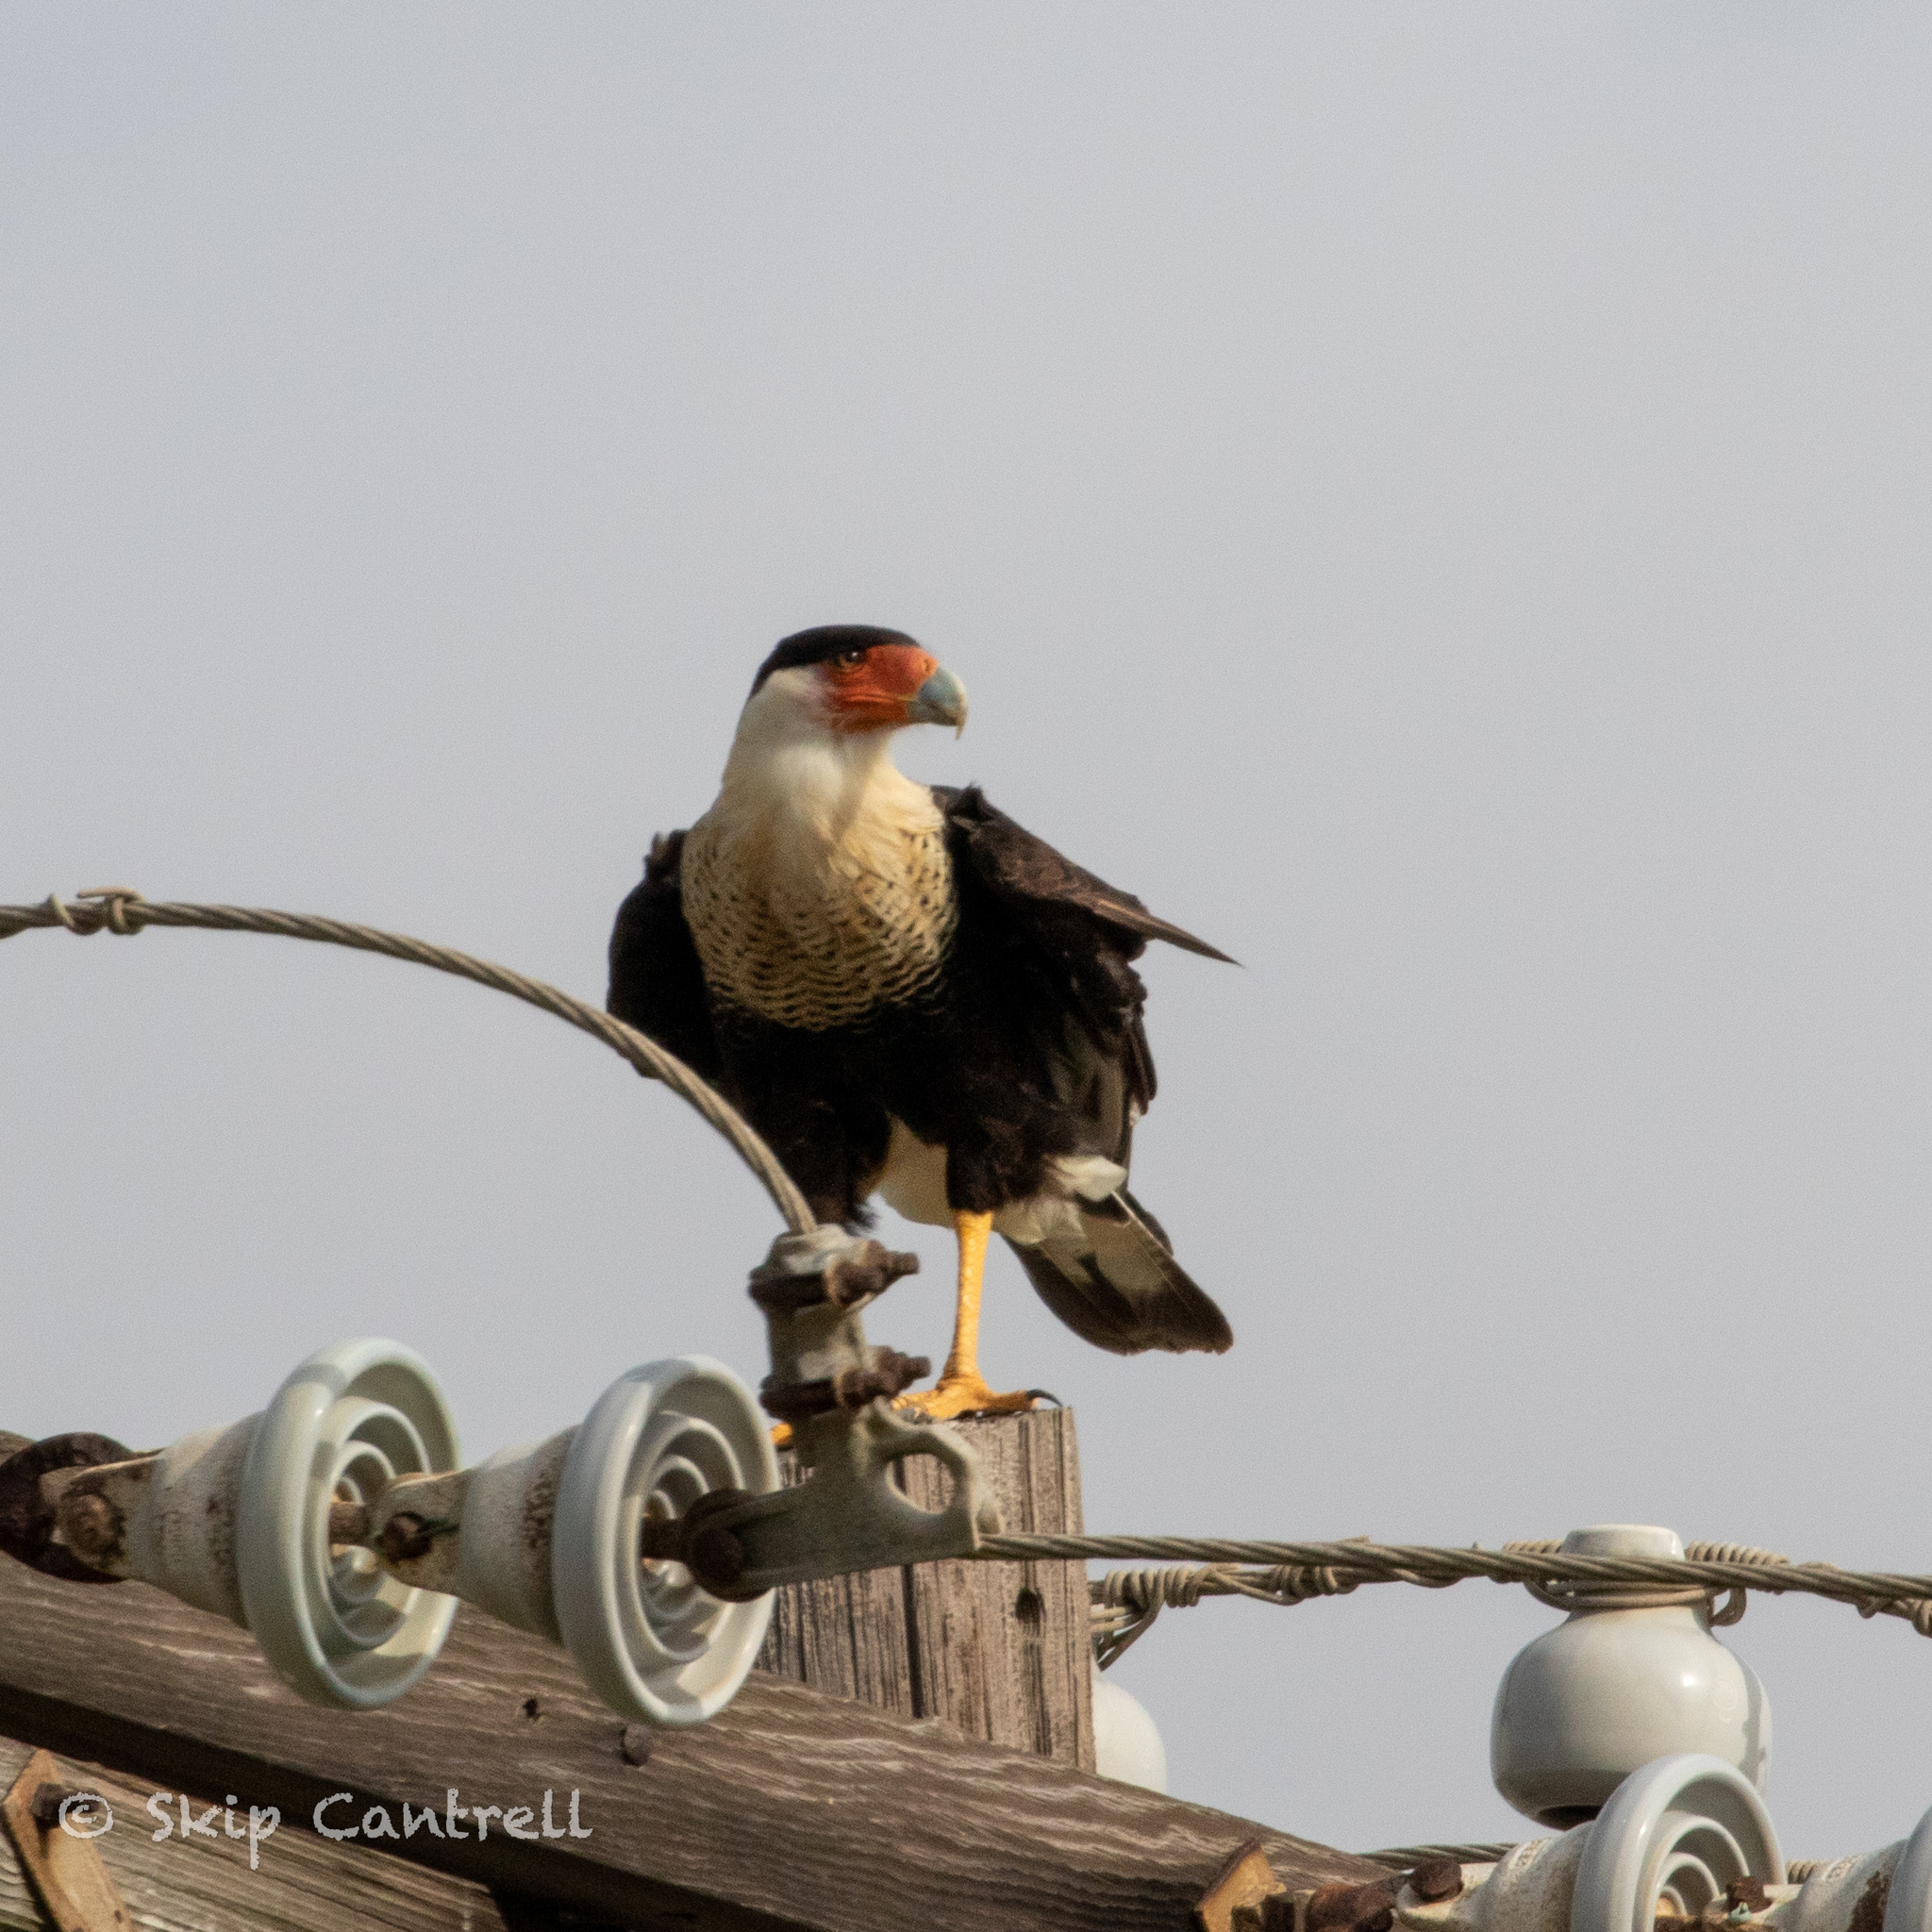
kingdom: Animalia
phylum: Chordata
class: Aves
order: Falconiformes
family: Falconidae
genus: Caracara
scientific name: Caracara plancus
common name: Southern caracara
